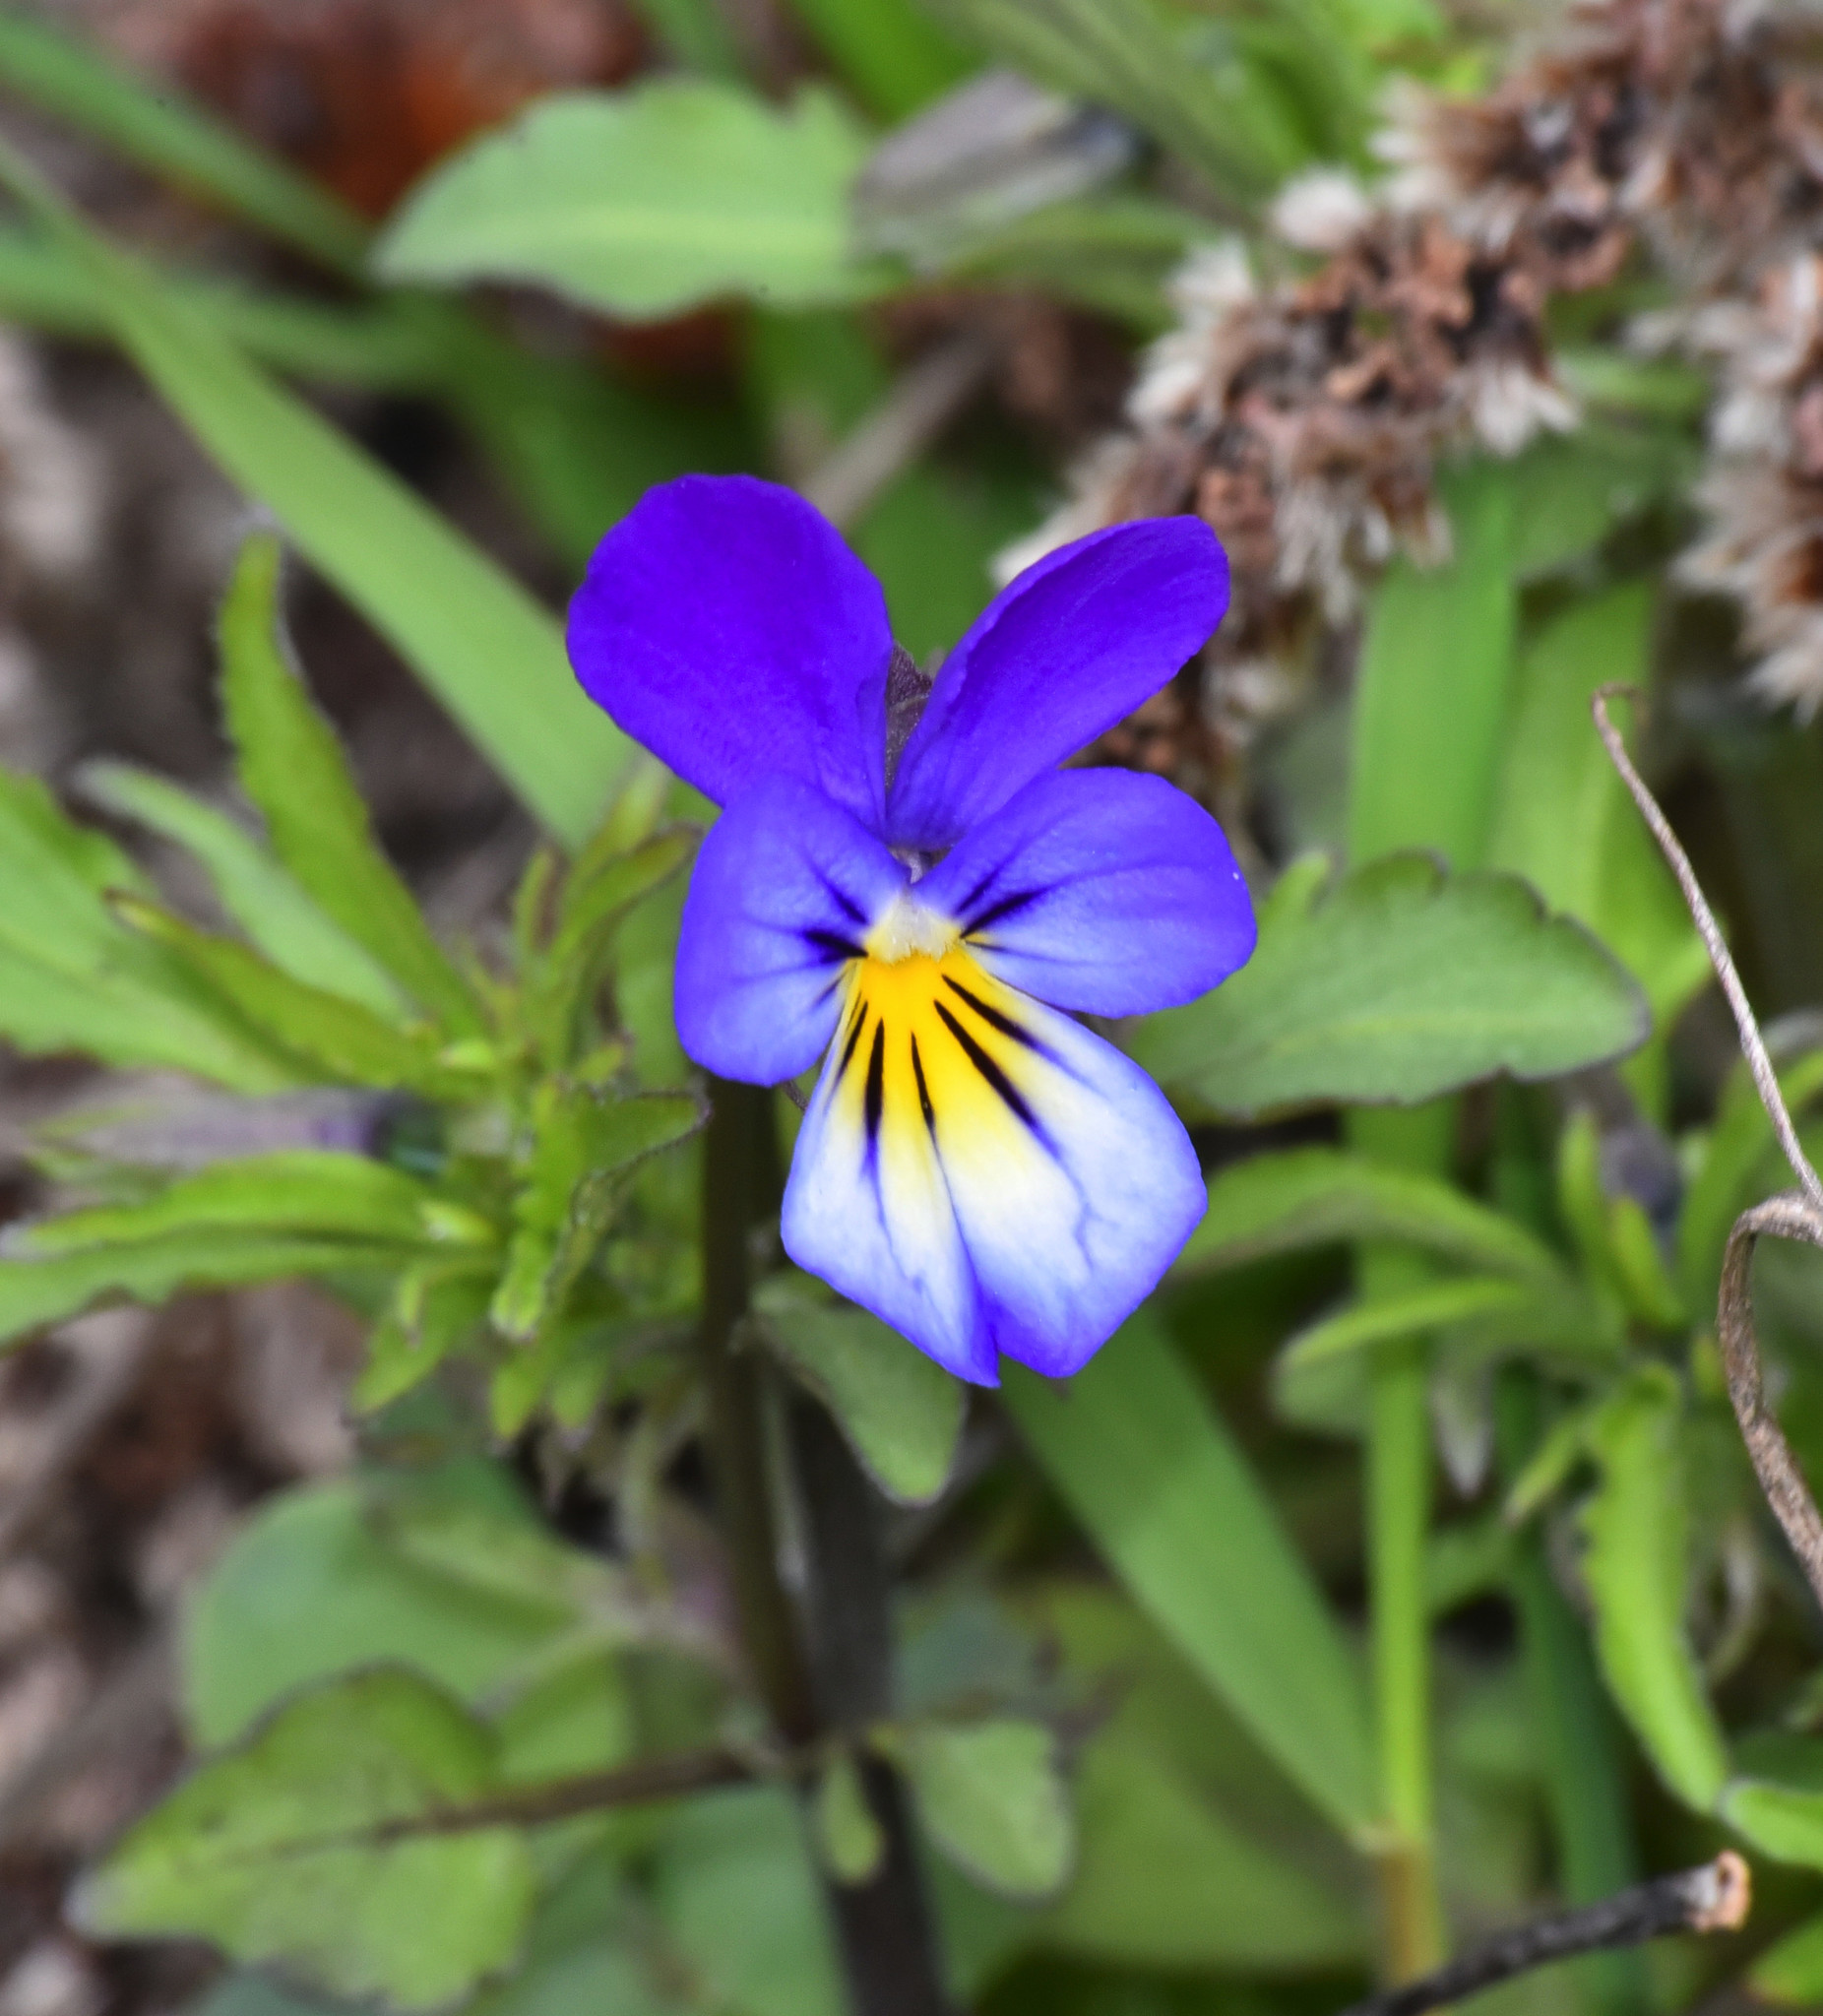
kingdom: Plantae
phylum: Tracheophyta
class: Magnoliopsida
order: Malpighiales
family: Violaceae
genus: Viola
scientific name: Viola tricolor
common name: Pansy
